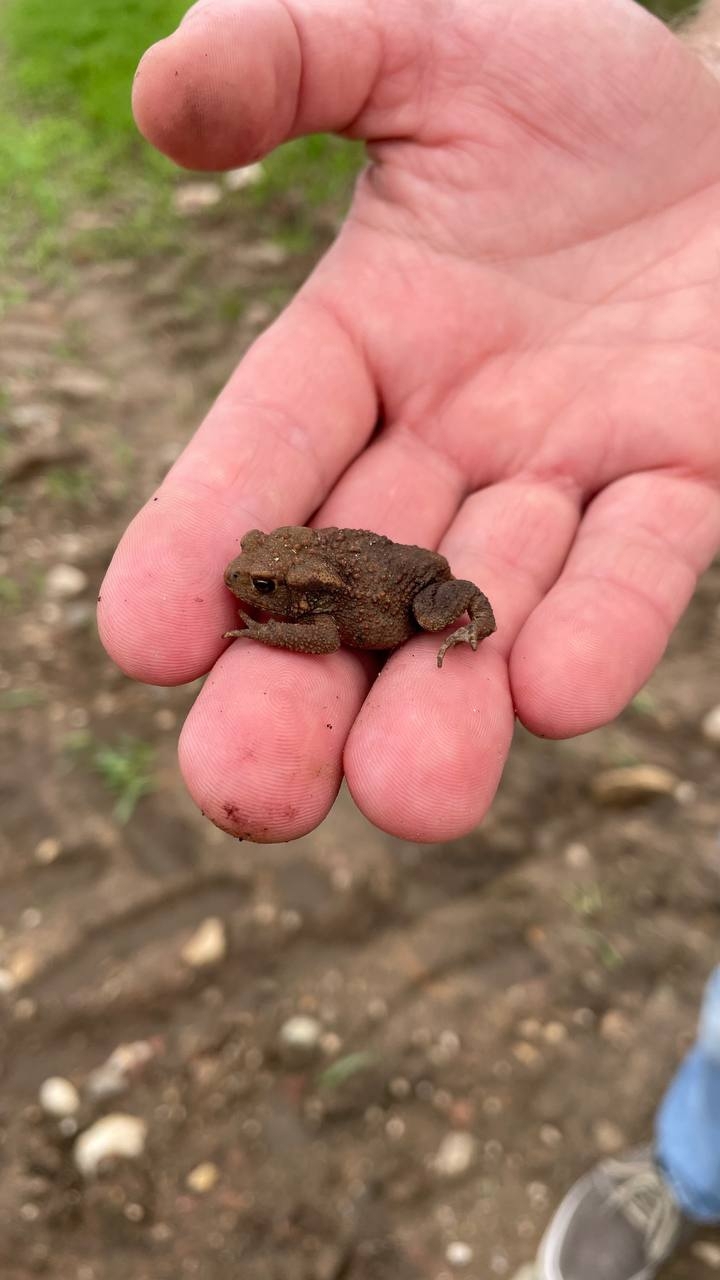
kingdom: Animalia
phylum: Chordata
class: Amphibia
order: Anura
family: Bufonidae
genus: Bufo
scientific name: Bufo bufo
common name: Common toad
